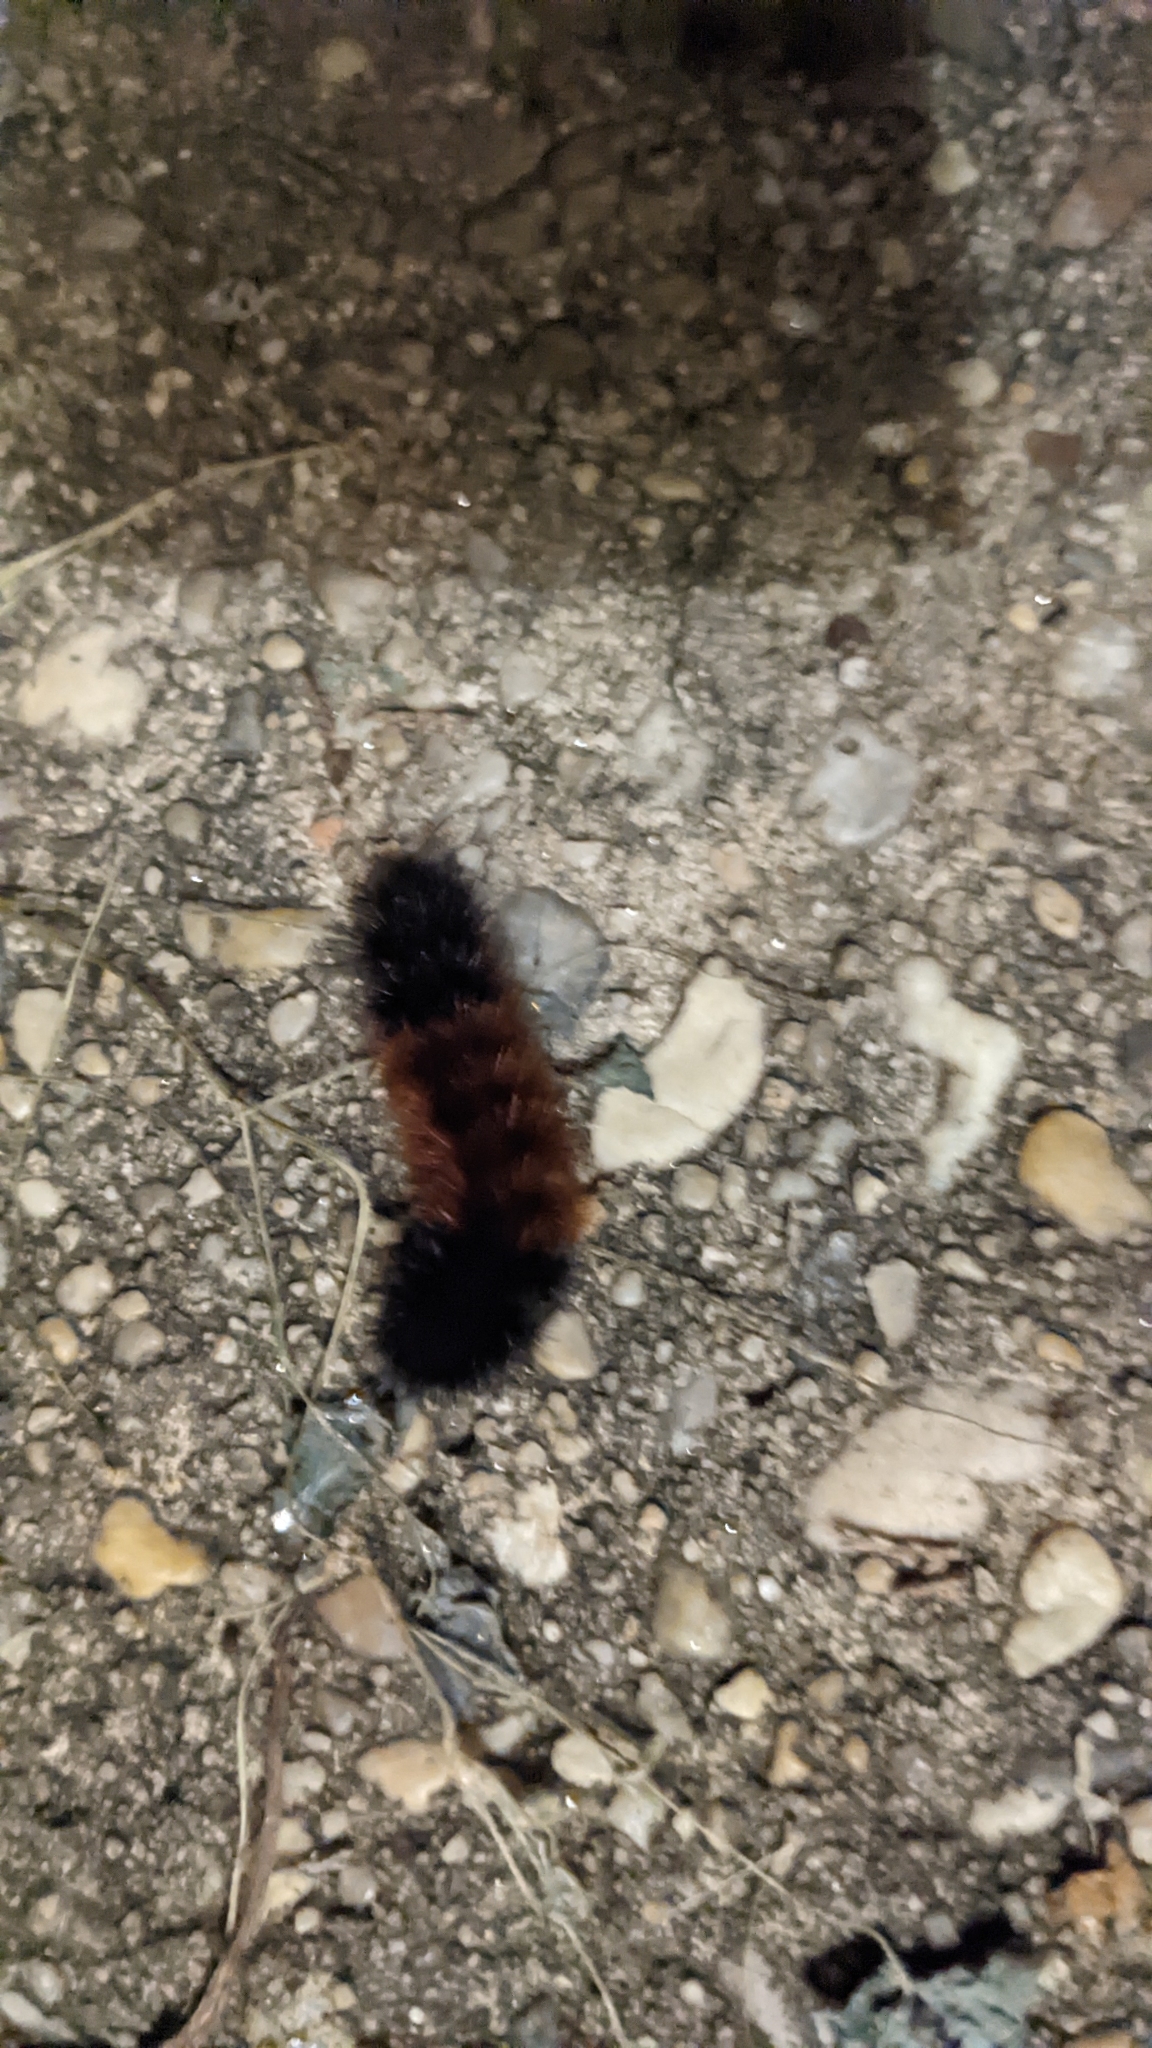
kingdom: Animalia
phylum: Arthropoda
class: Insecta
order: Lepidoptera
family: Erebidae
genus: Pyrrharctia
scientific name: Pyrrharctia isabella
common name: Isabella tiger moth
